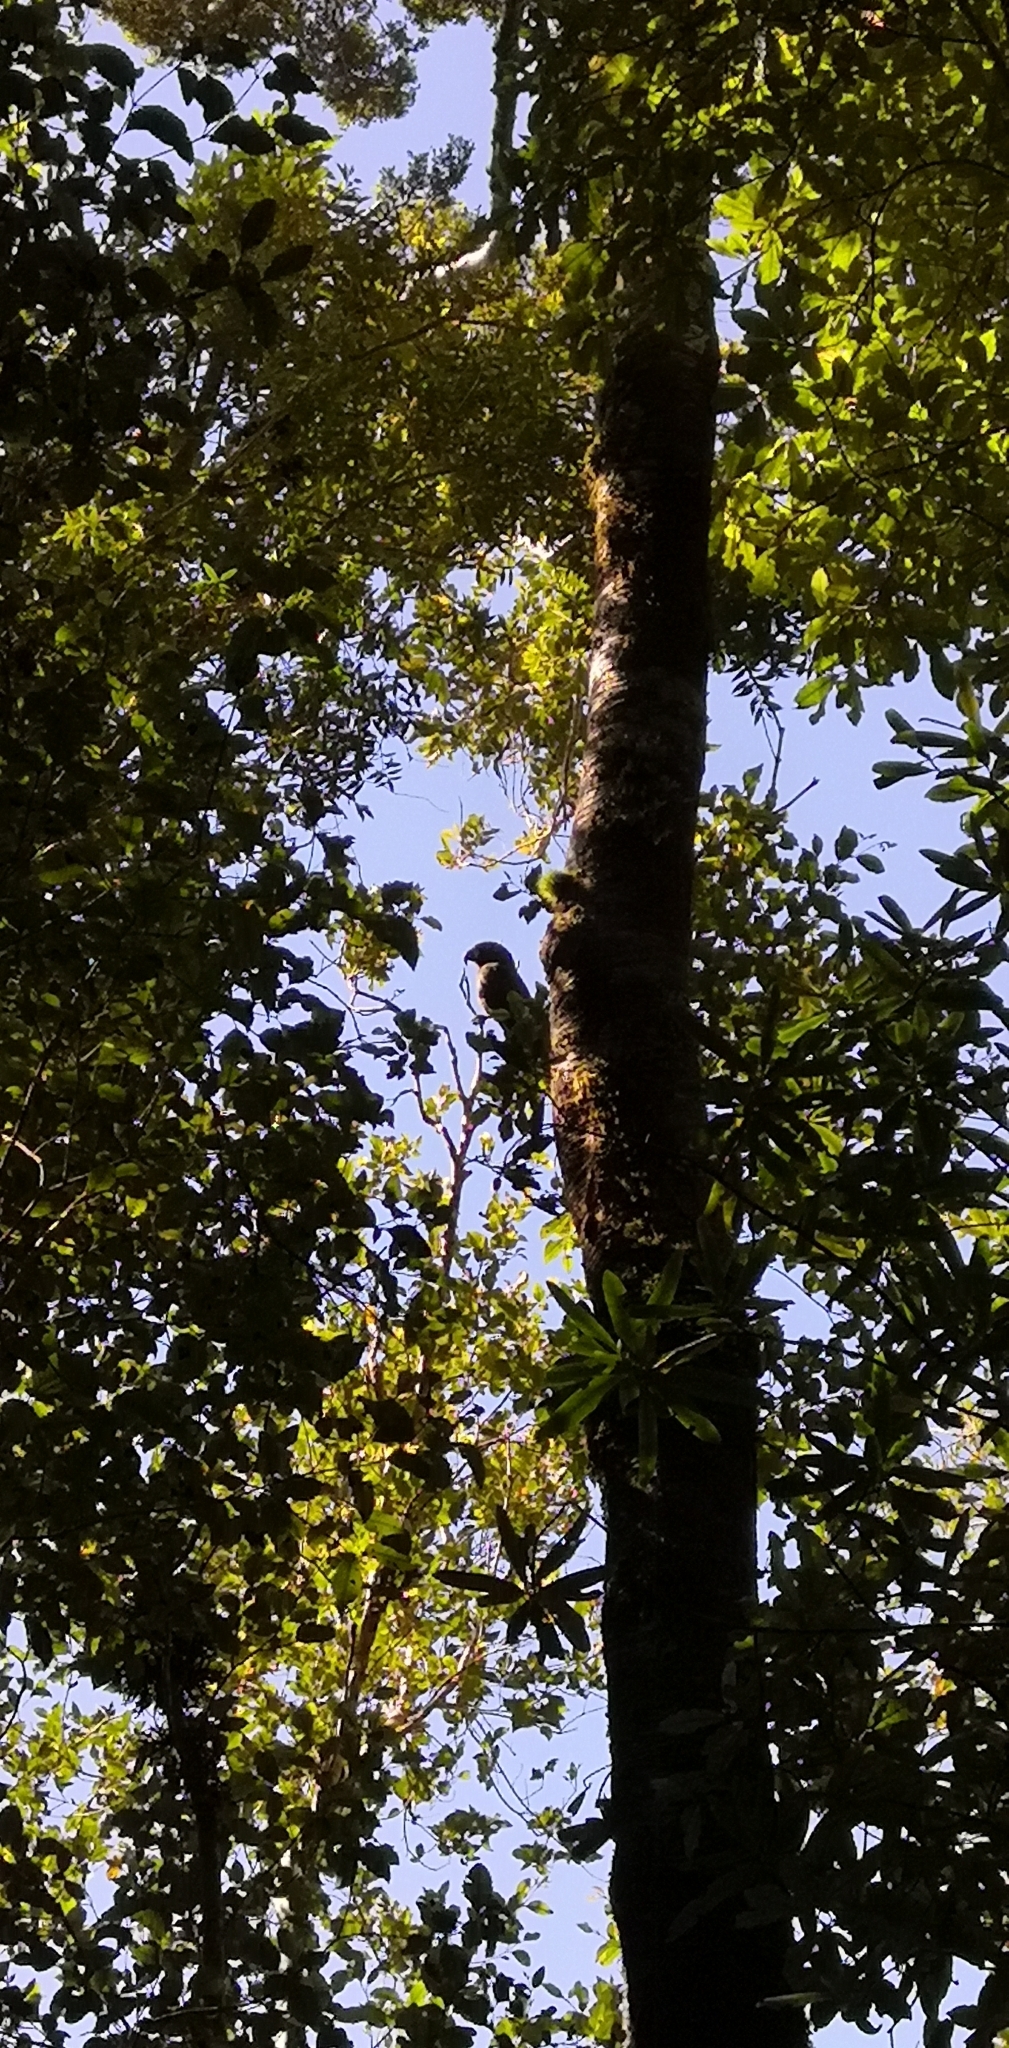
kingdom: Animalia
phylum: Chordata
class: Aves
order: Psittaciformes
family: Psittacidae
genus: Nestor
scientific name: Nestor meridionalis
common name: New zealand kaka
